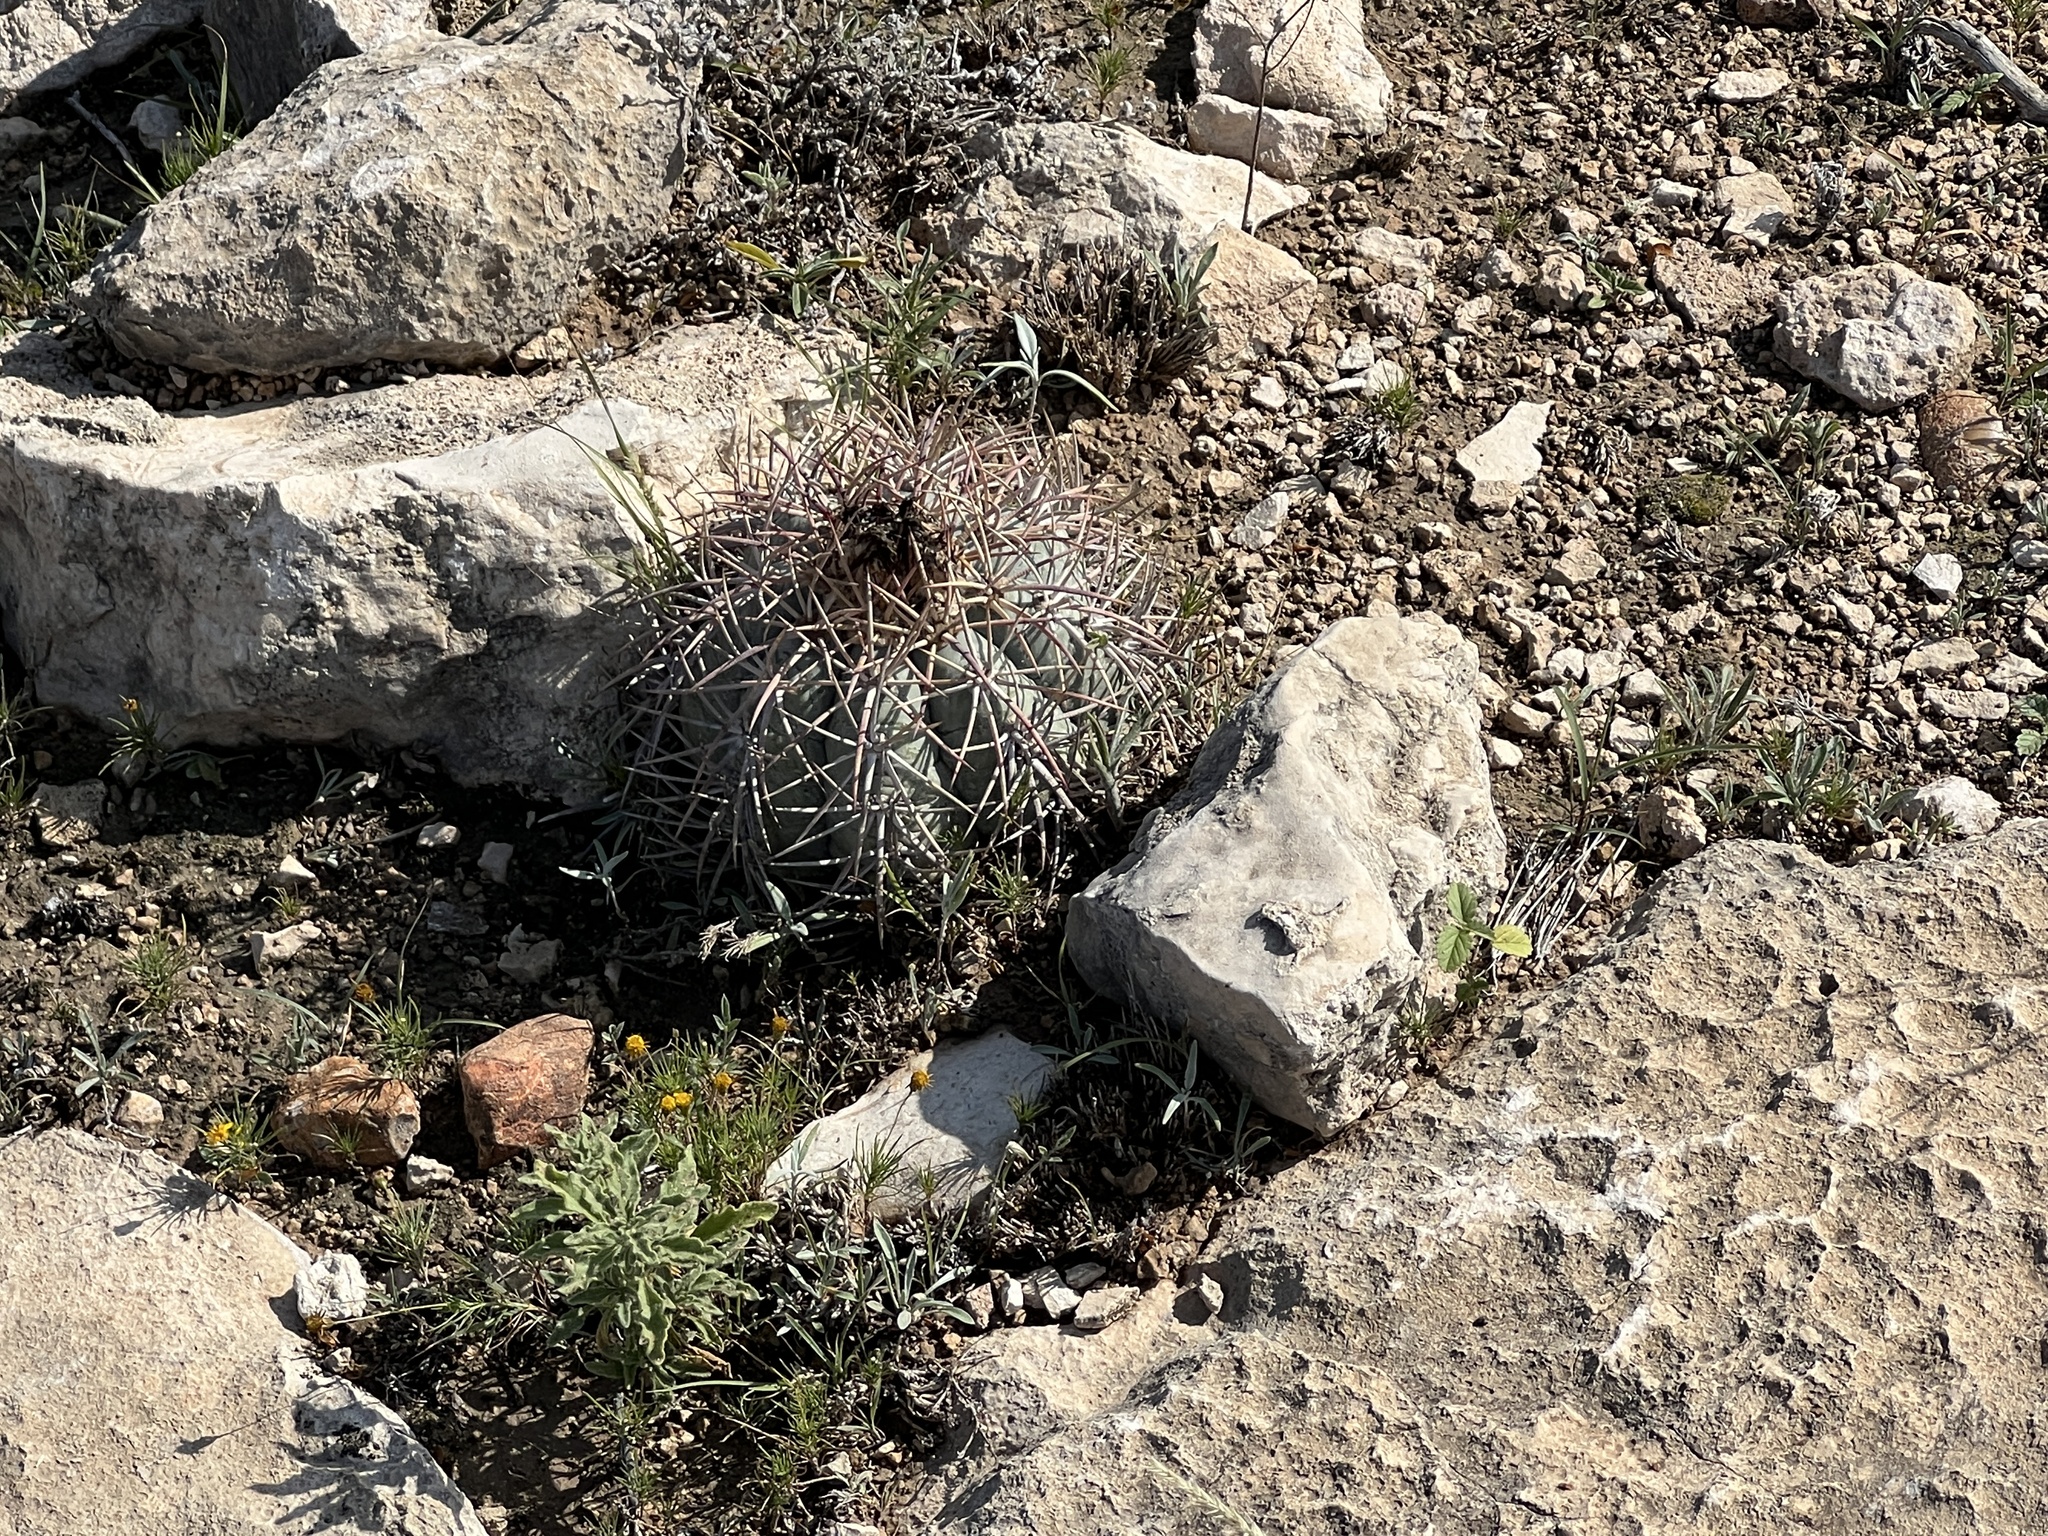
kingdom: Plantae
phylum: Tracheophyta
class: Magnoliopsida
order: Caryophyllales
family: Cactaceae
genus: Echinocactus
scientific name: Echinocactus horizonthalonius
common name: Devilshead
